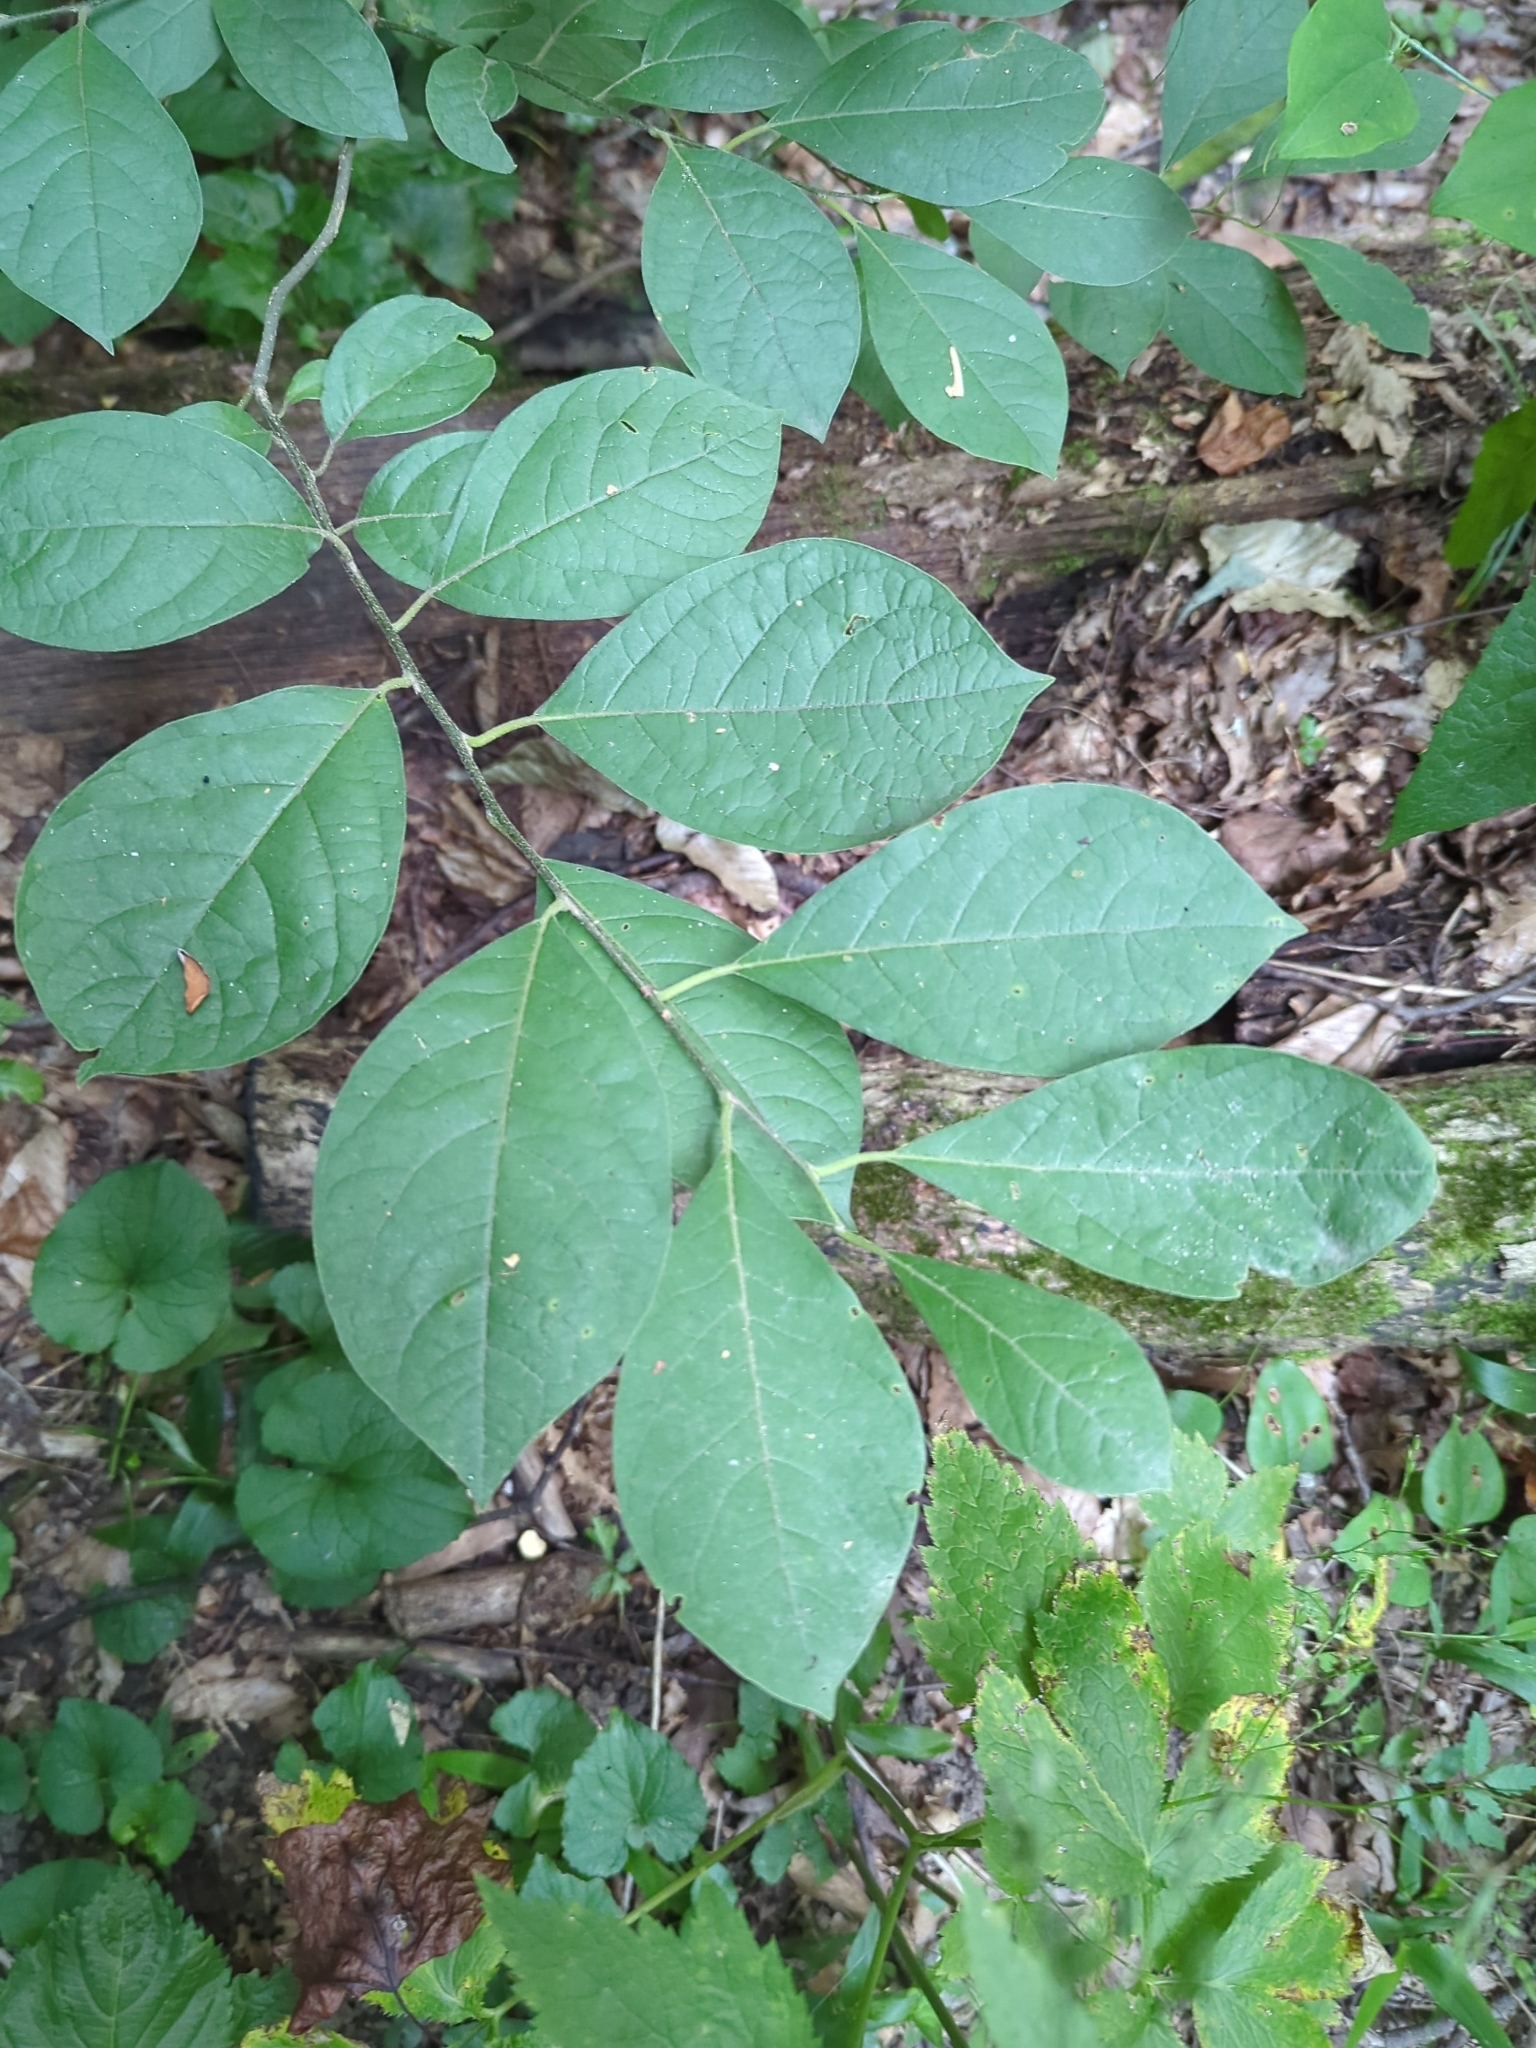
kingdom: Plantae
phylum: Tracheophyta
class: Magnoliopsida
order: Laurales
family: Lauraceae
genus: Lindera
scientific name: Lindera benzoin
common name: Spicebush
